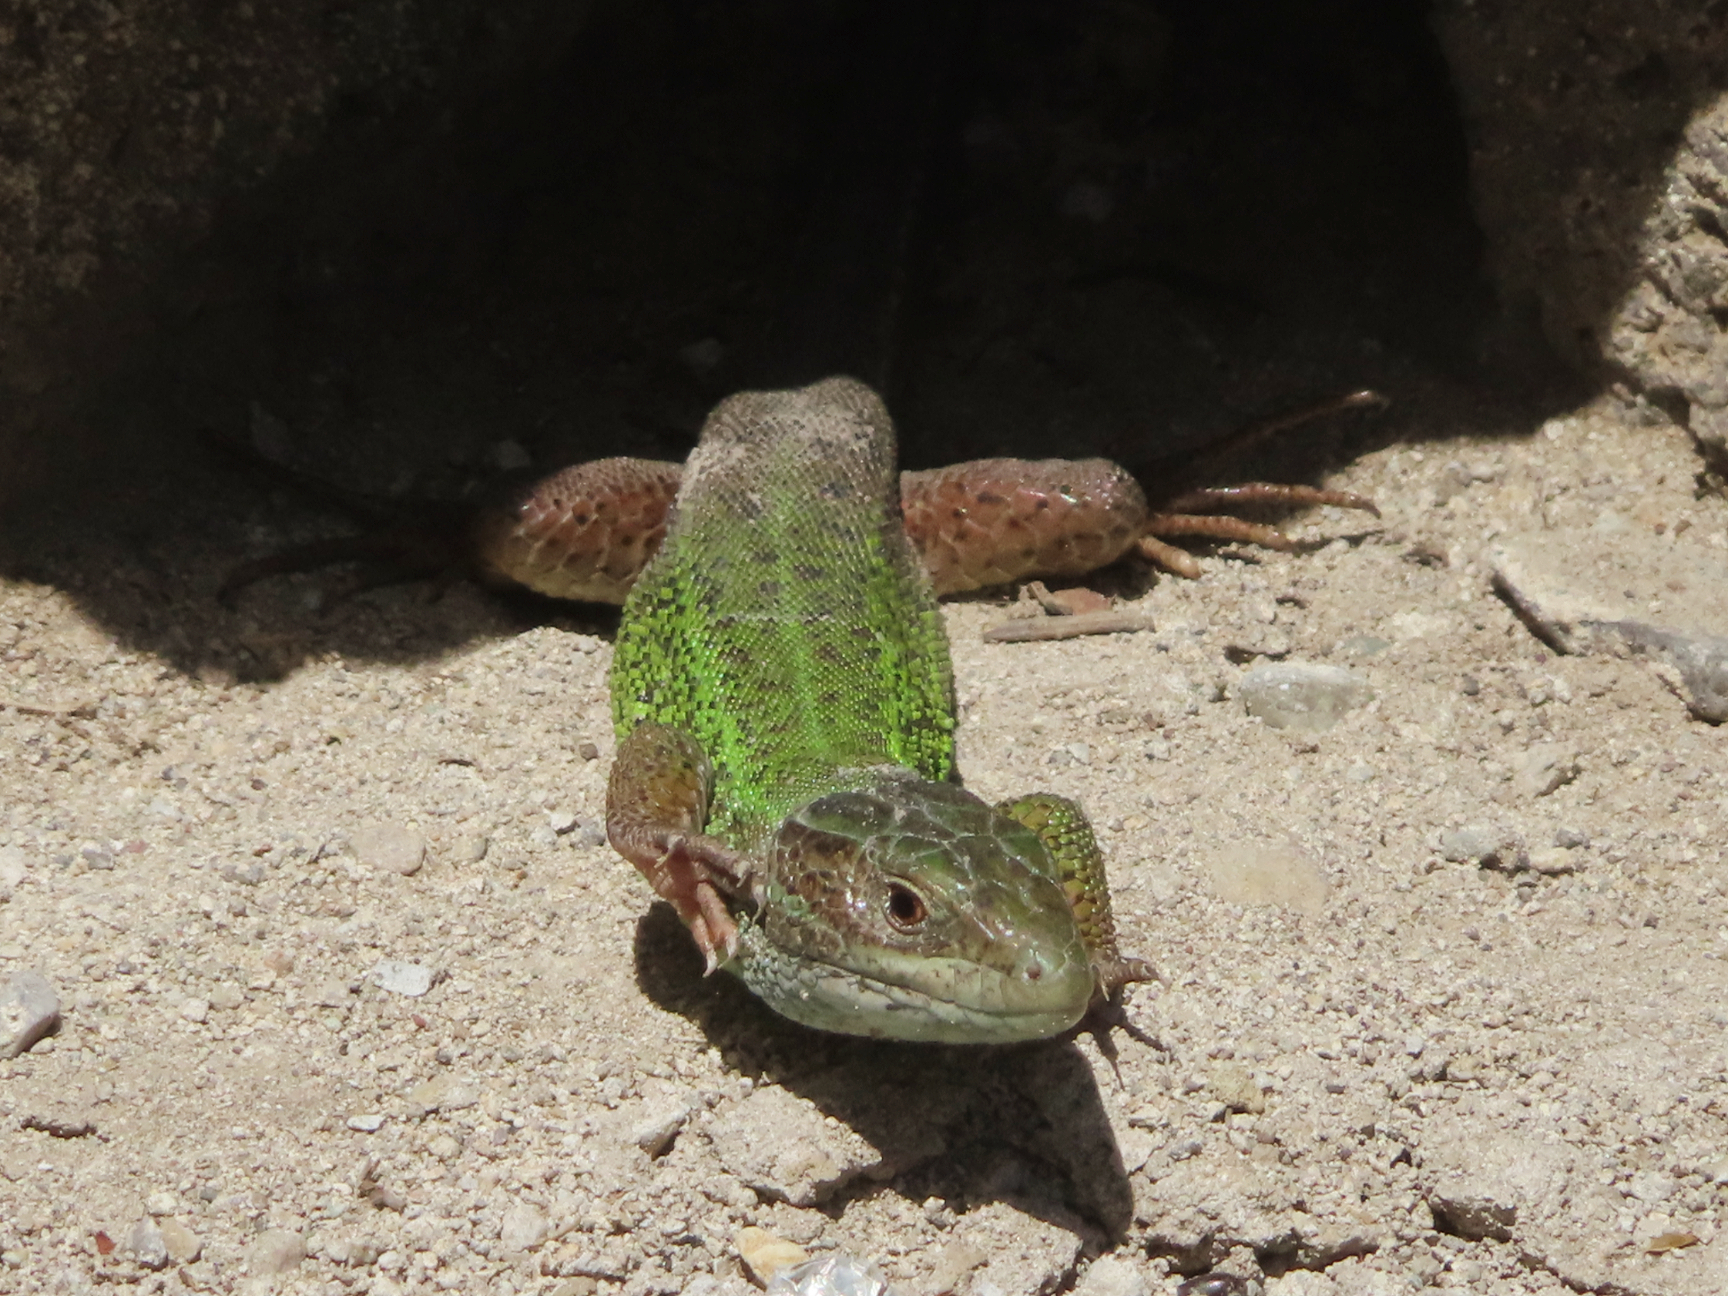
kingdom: Animalia
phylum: Chordata
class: Squamata
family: Lacertidae
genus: Lacerta
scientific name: Lacerta strigata
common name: Caspian green lizard
